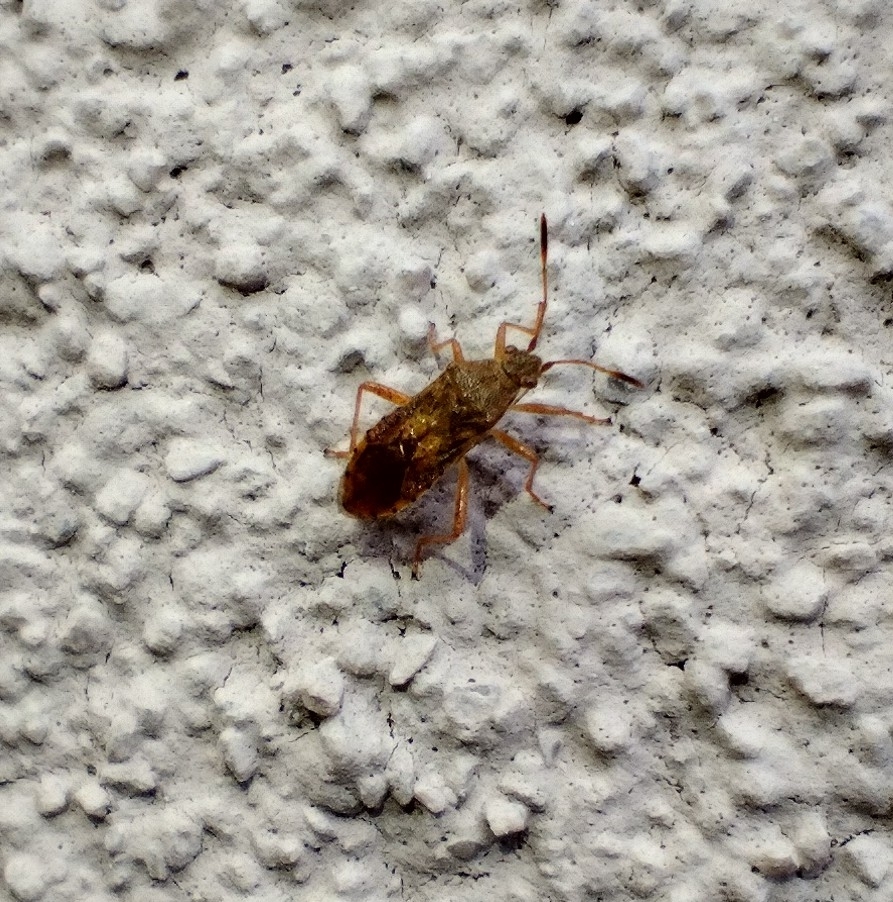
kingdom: Animalia
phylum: Arthropoda
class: Insecta
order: Hemiptera
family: Rhopalidae
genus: Rhopalus
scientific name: Rhopalus maculatus
